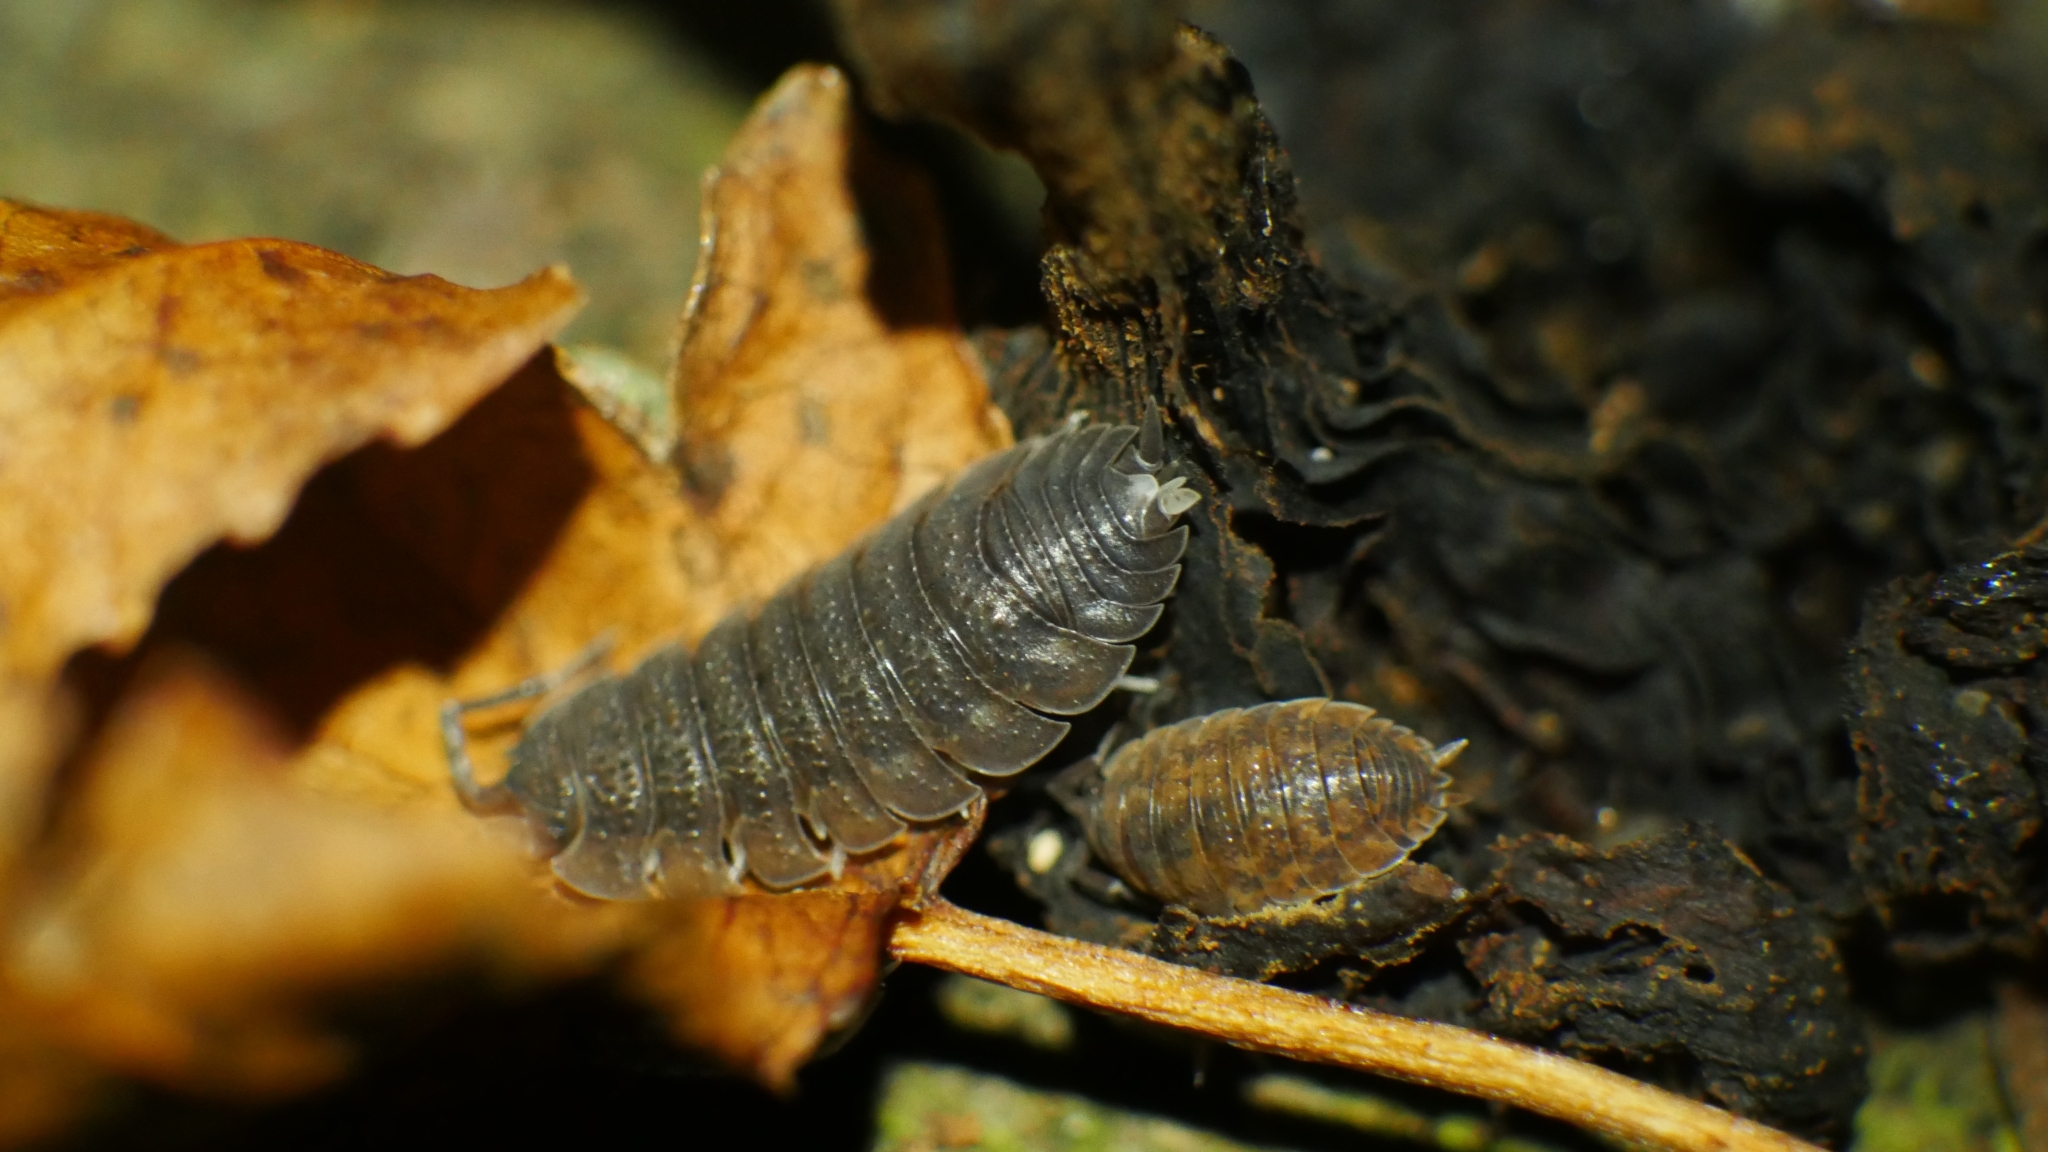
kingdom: Animalia
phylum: Arthropoda
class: Malacostraca
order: Isopoda
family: Porcellionidae
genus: Porcellio
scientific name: Porcellio scaber
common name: Common rough woodlouse
